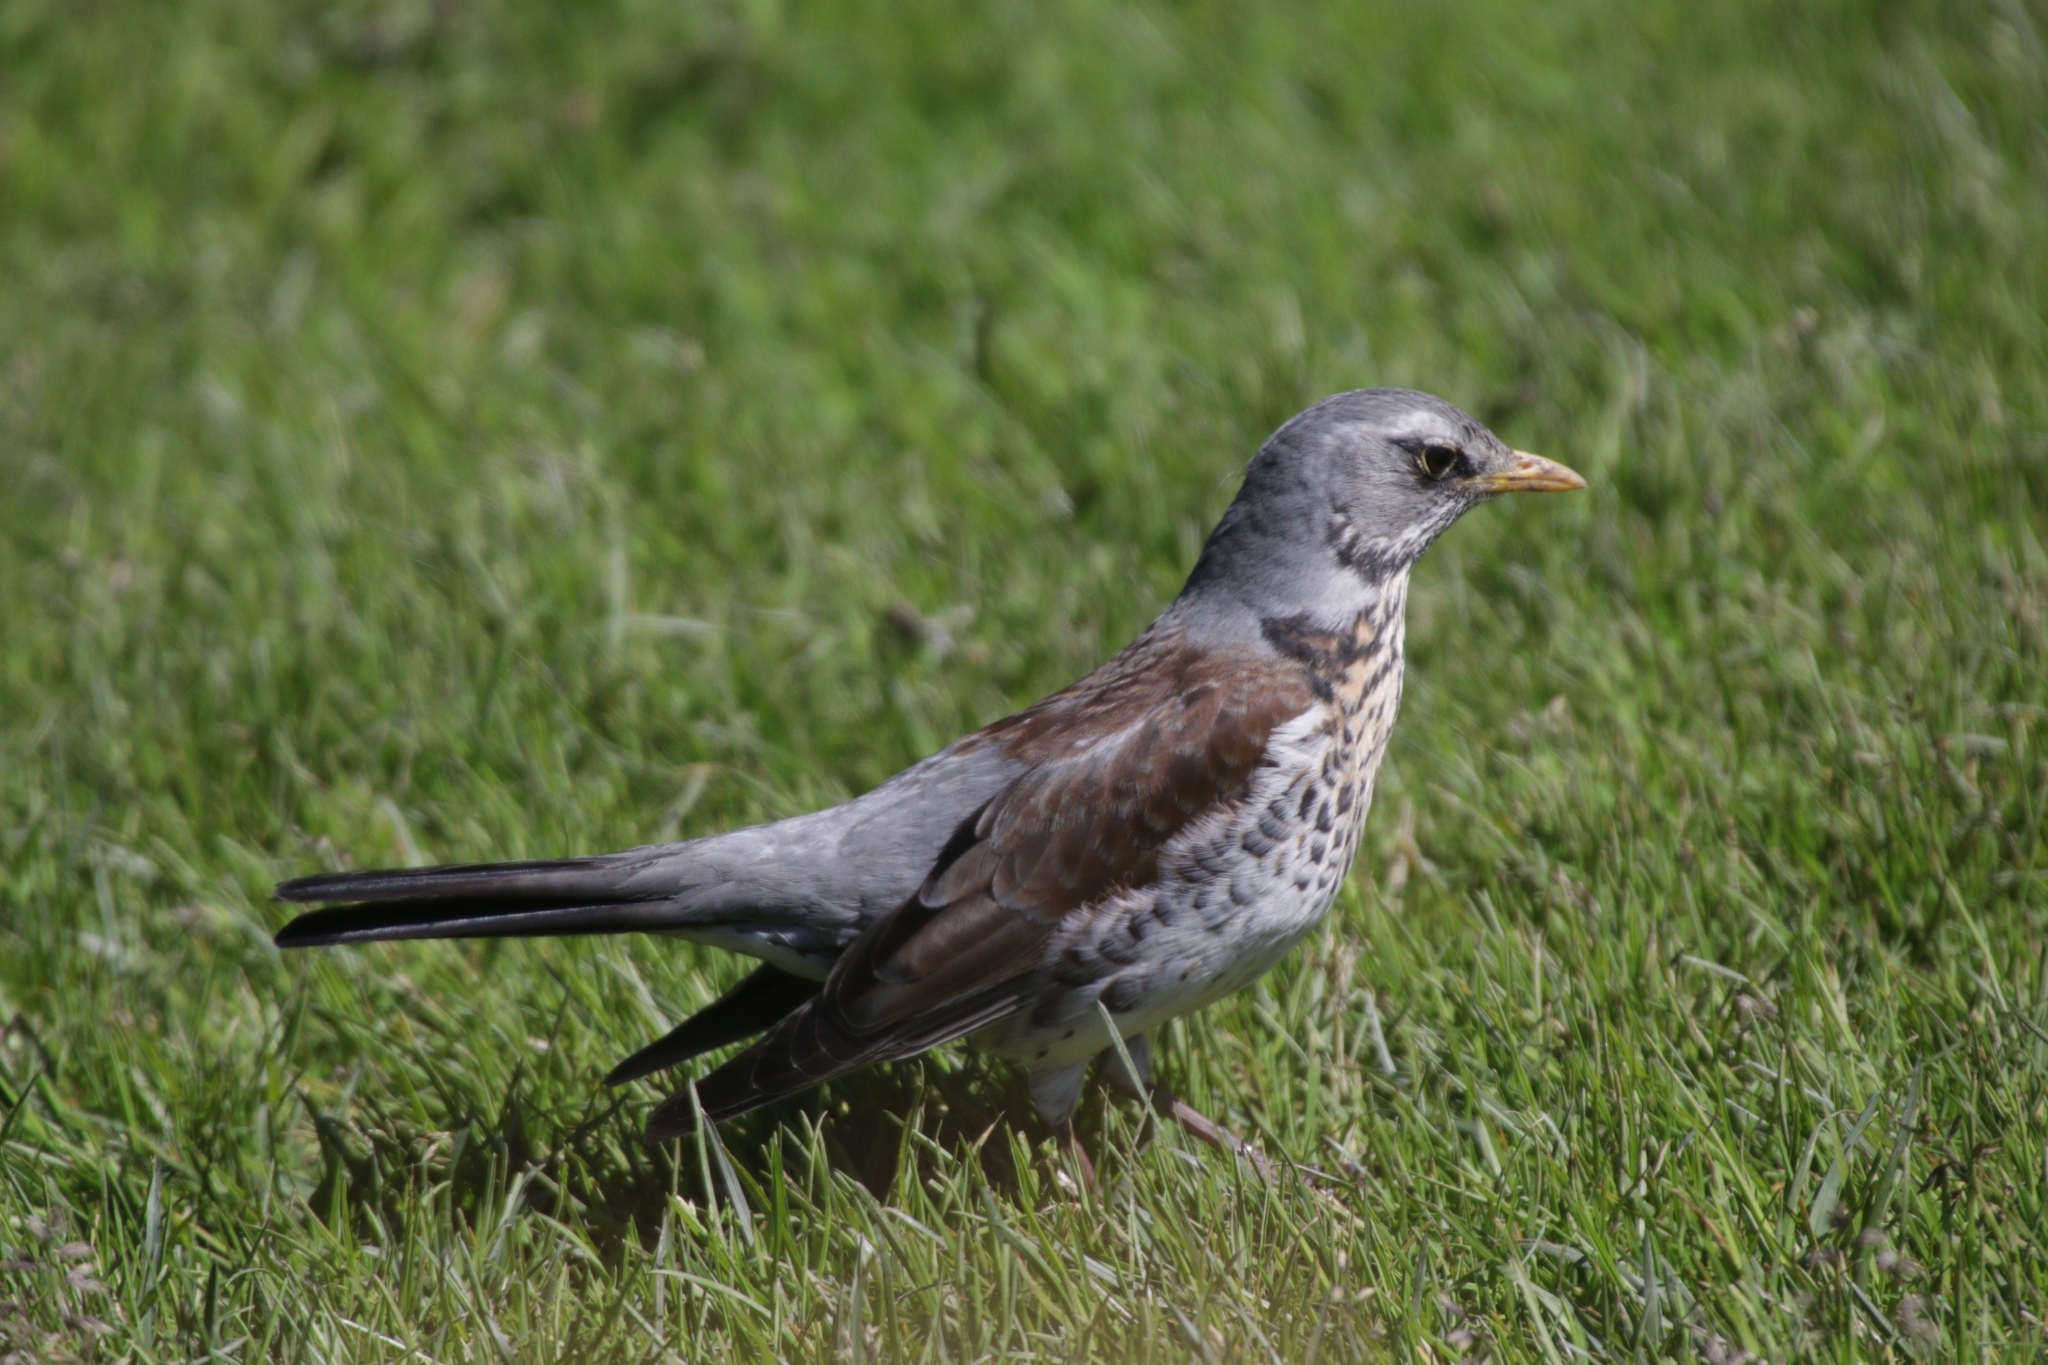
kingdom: Animalia
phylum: Chordata
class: Aves
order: Passeriformes
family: Turdidae
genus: Turdus
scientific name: Turdus pilaris
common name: Fieldfare
